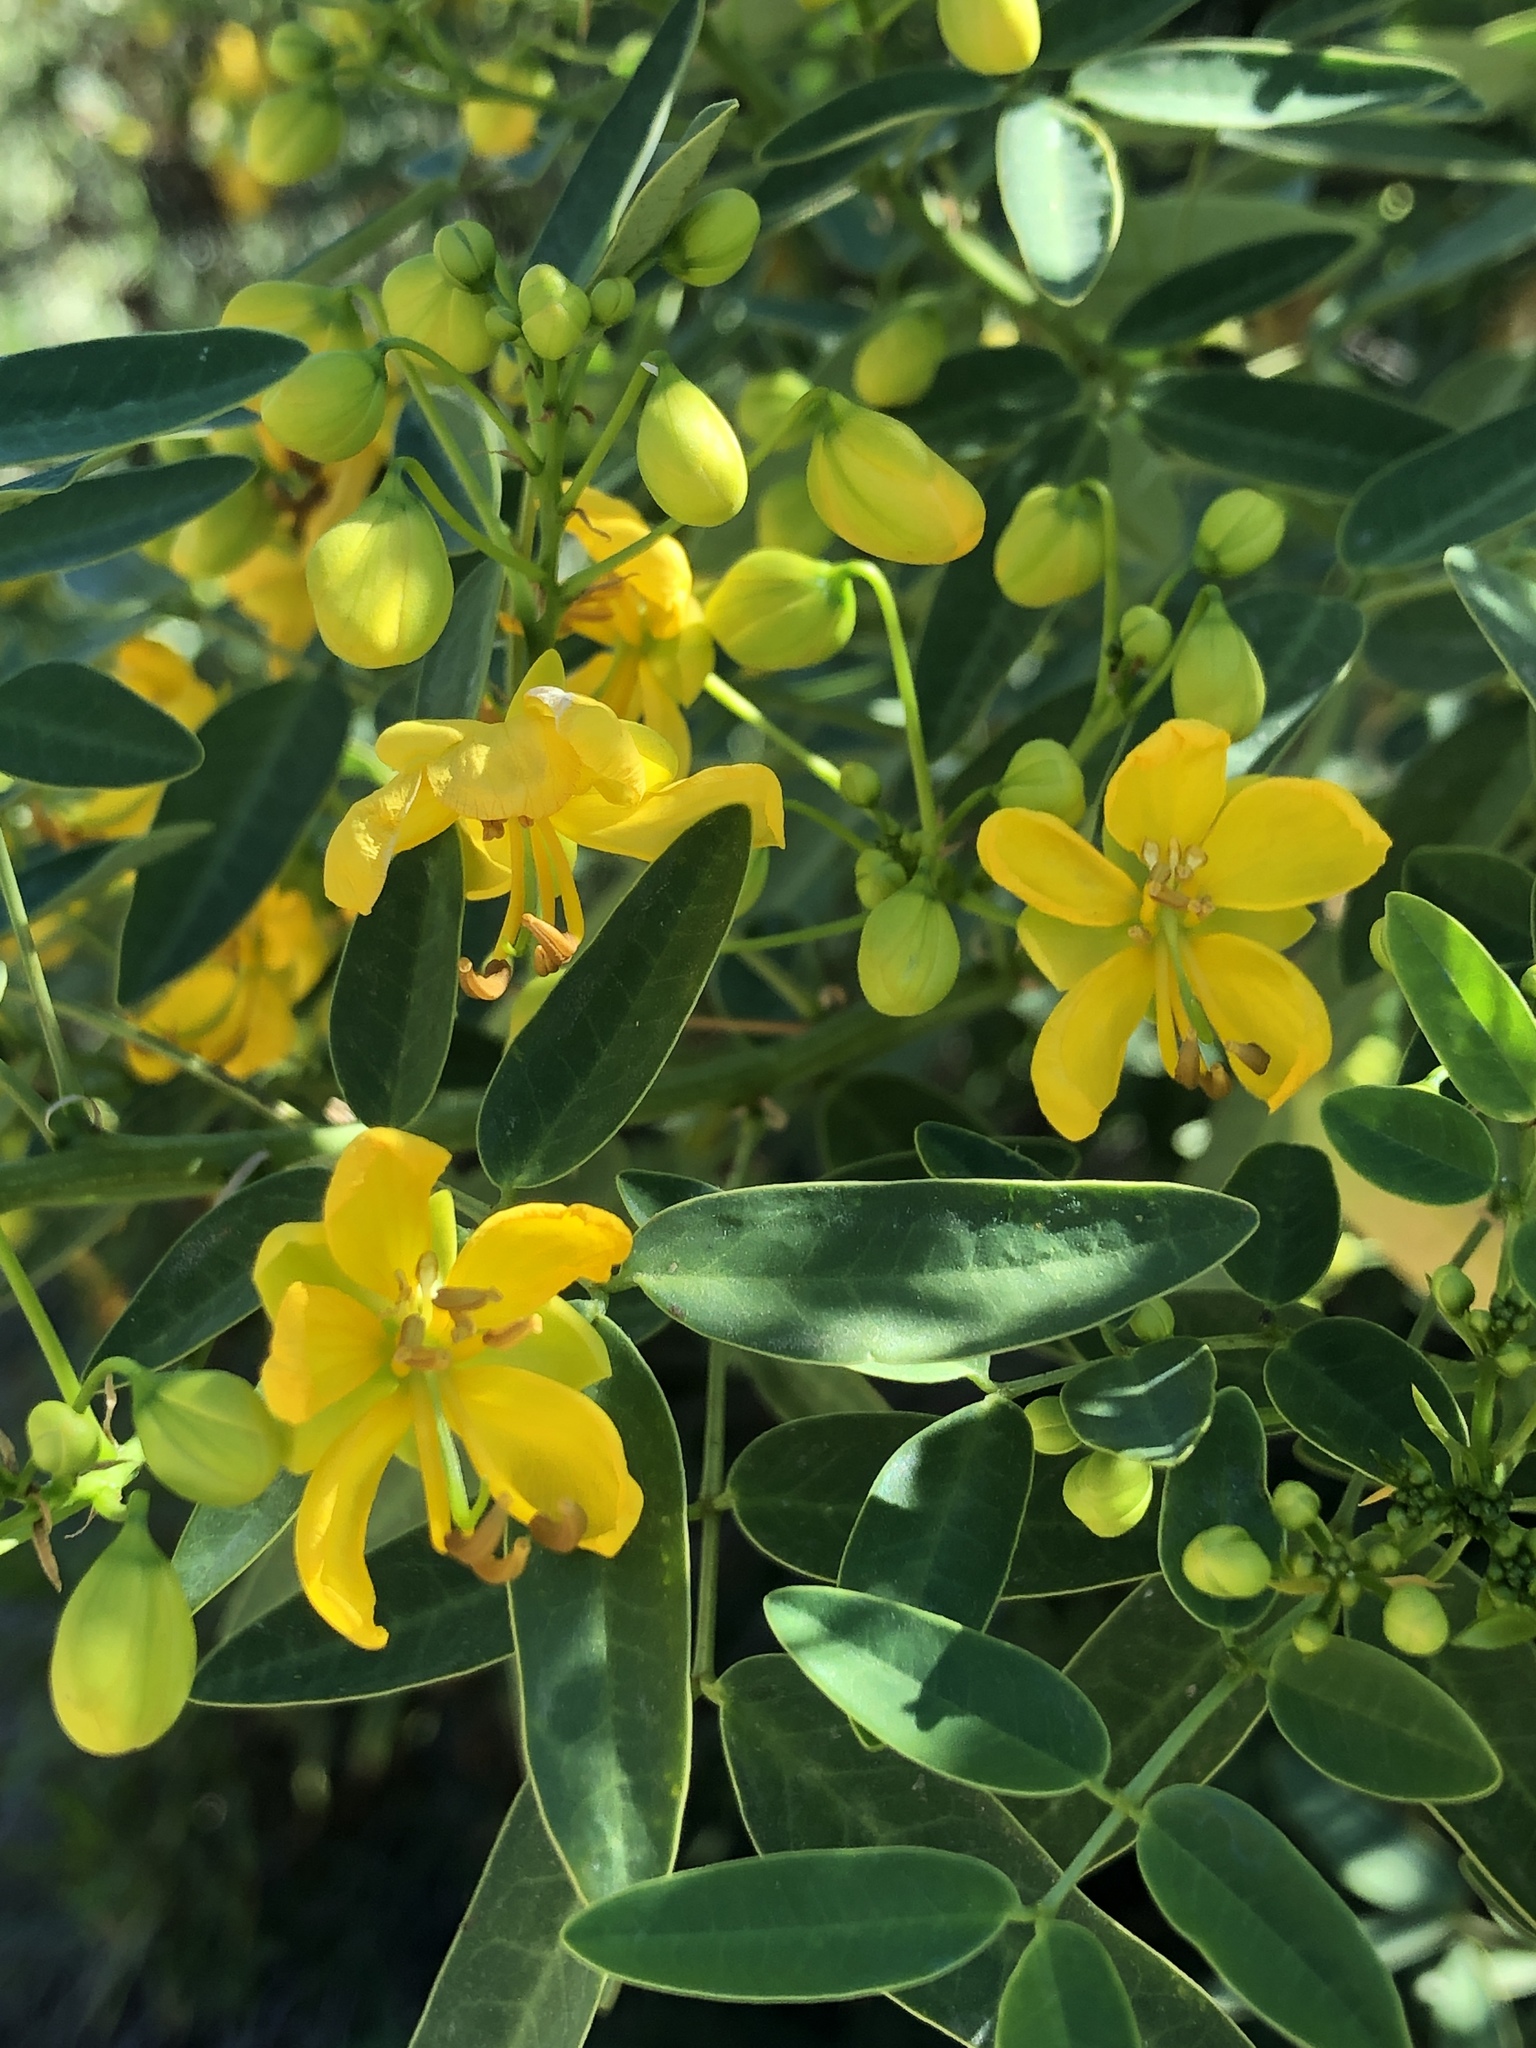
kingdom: Plantae
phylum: Tracheophyta
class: Magnoliopsida
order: Fabales
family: Fabaceae
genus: Senna
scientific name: Senna corymbosa
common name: Argentine senna
